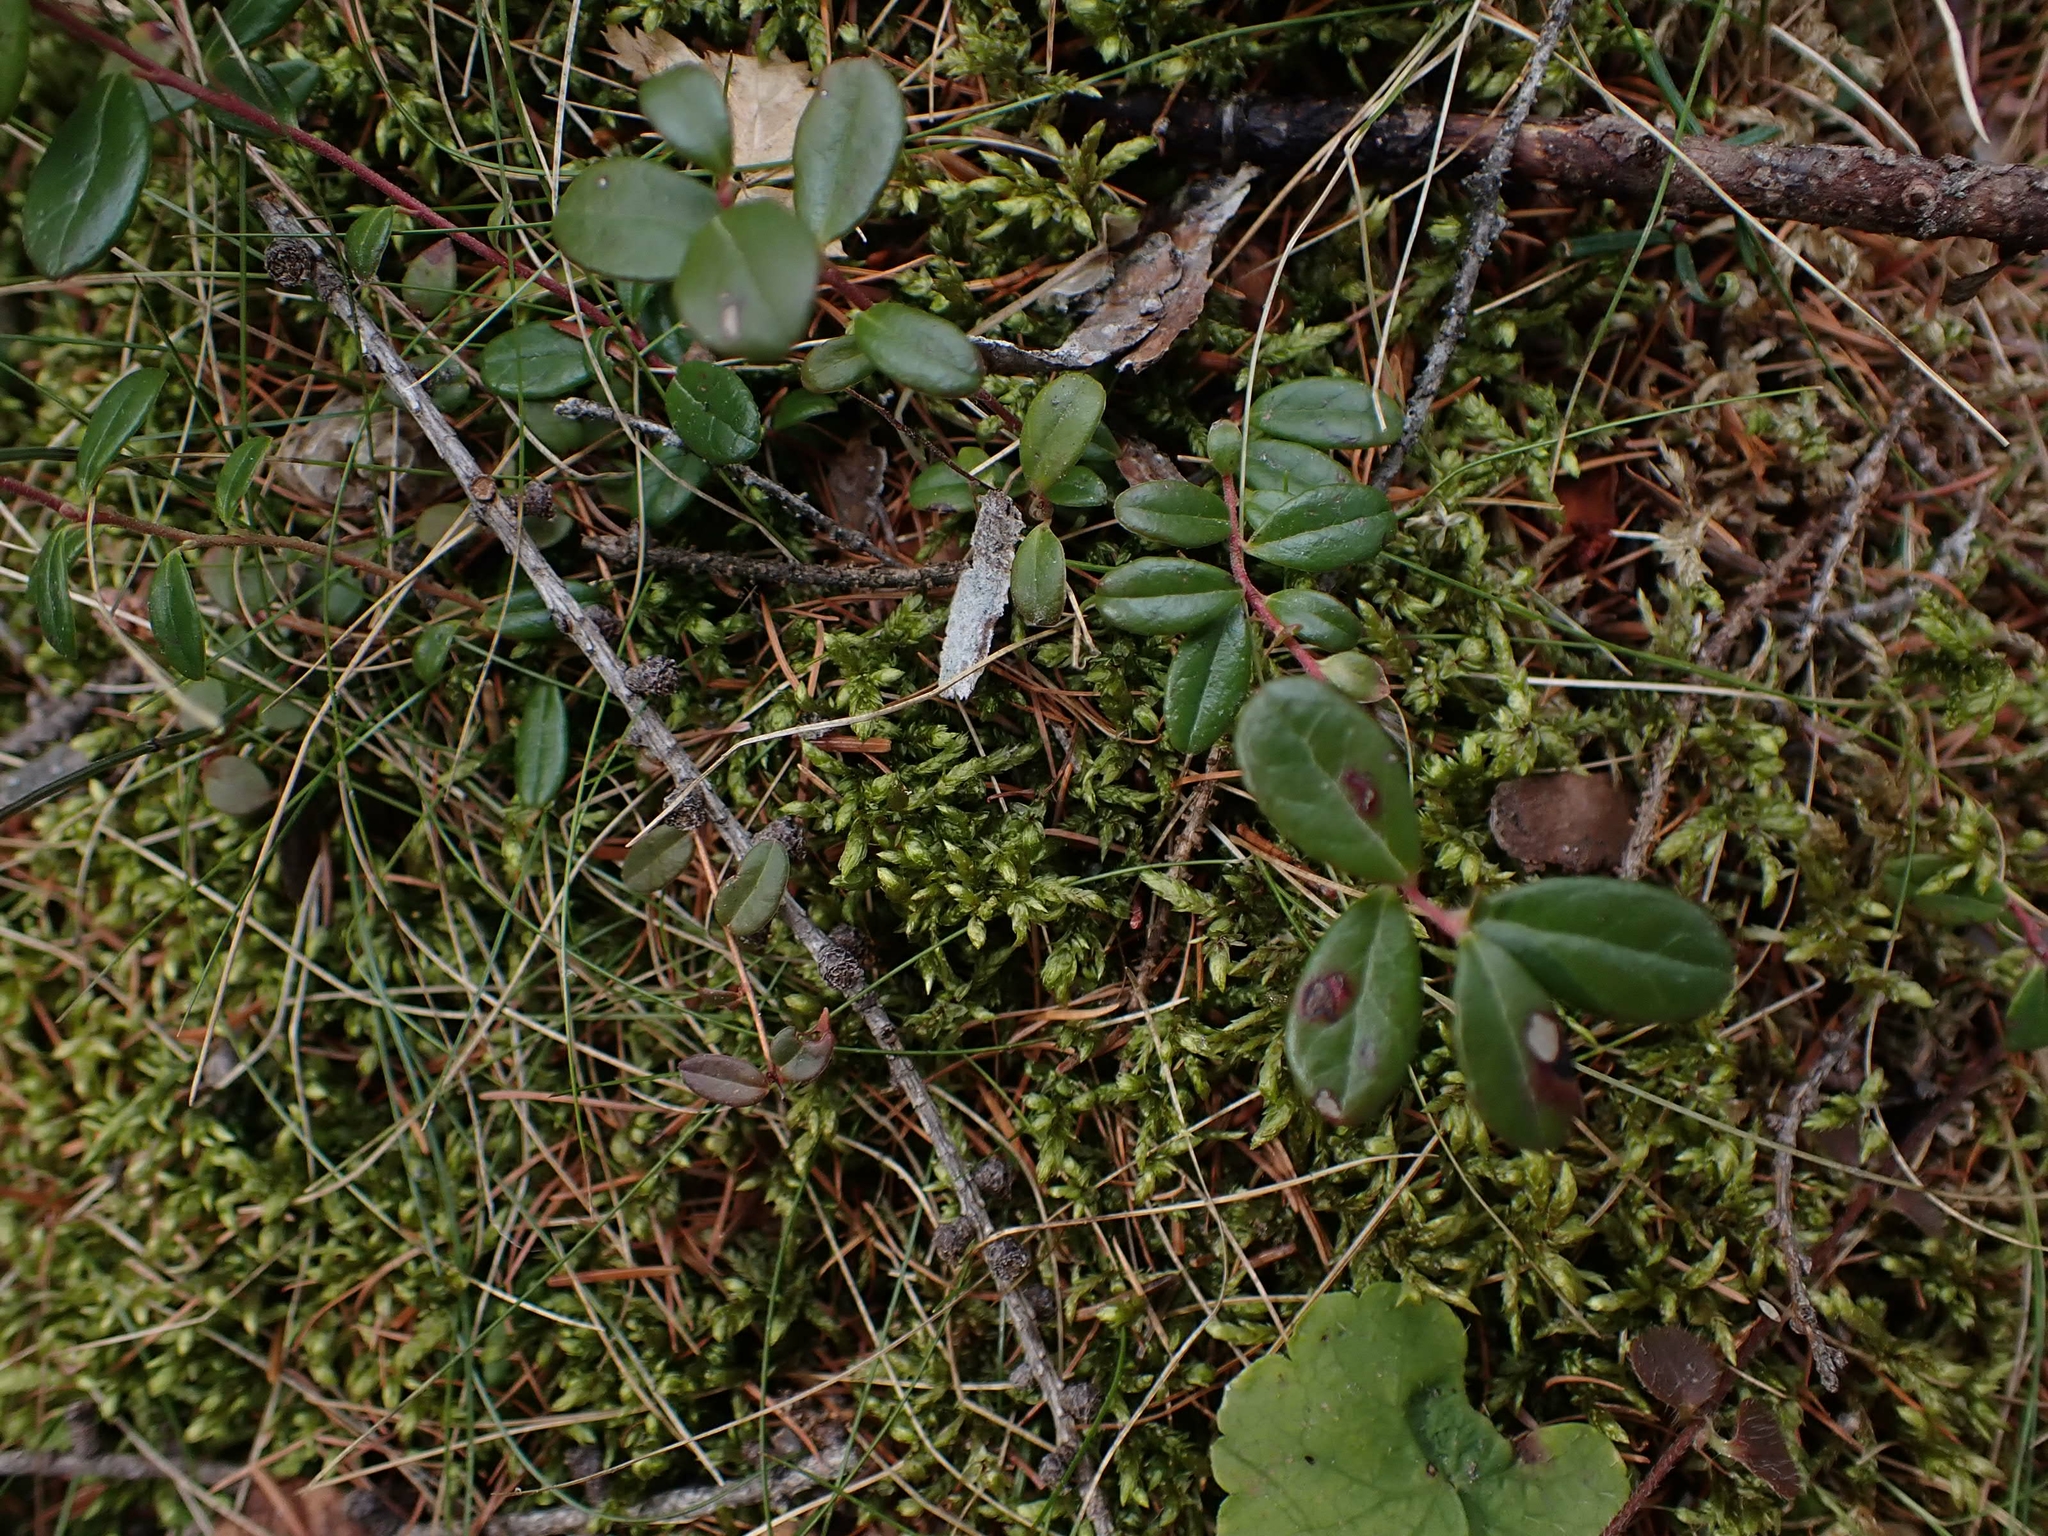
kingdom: Plantae
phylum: Tracheophyta
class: Magnoliopsida
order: Ericales
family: Ericaceae
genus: Vaccinium
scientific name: Vaccinium vitis-idaea
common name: Cowberry
